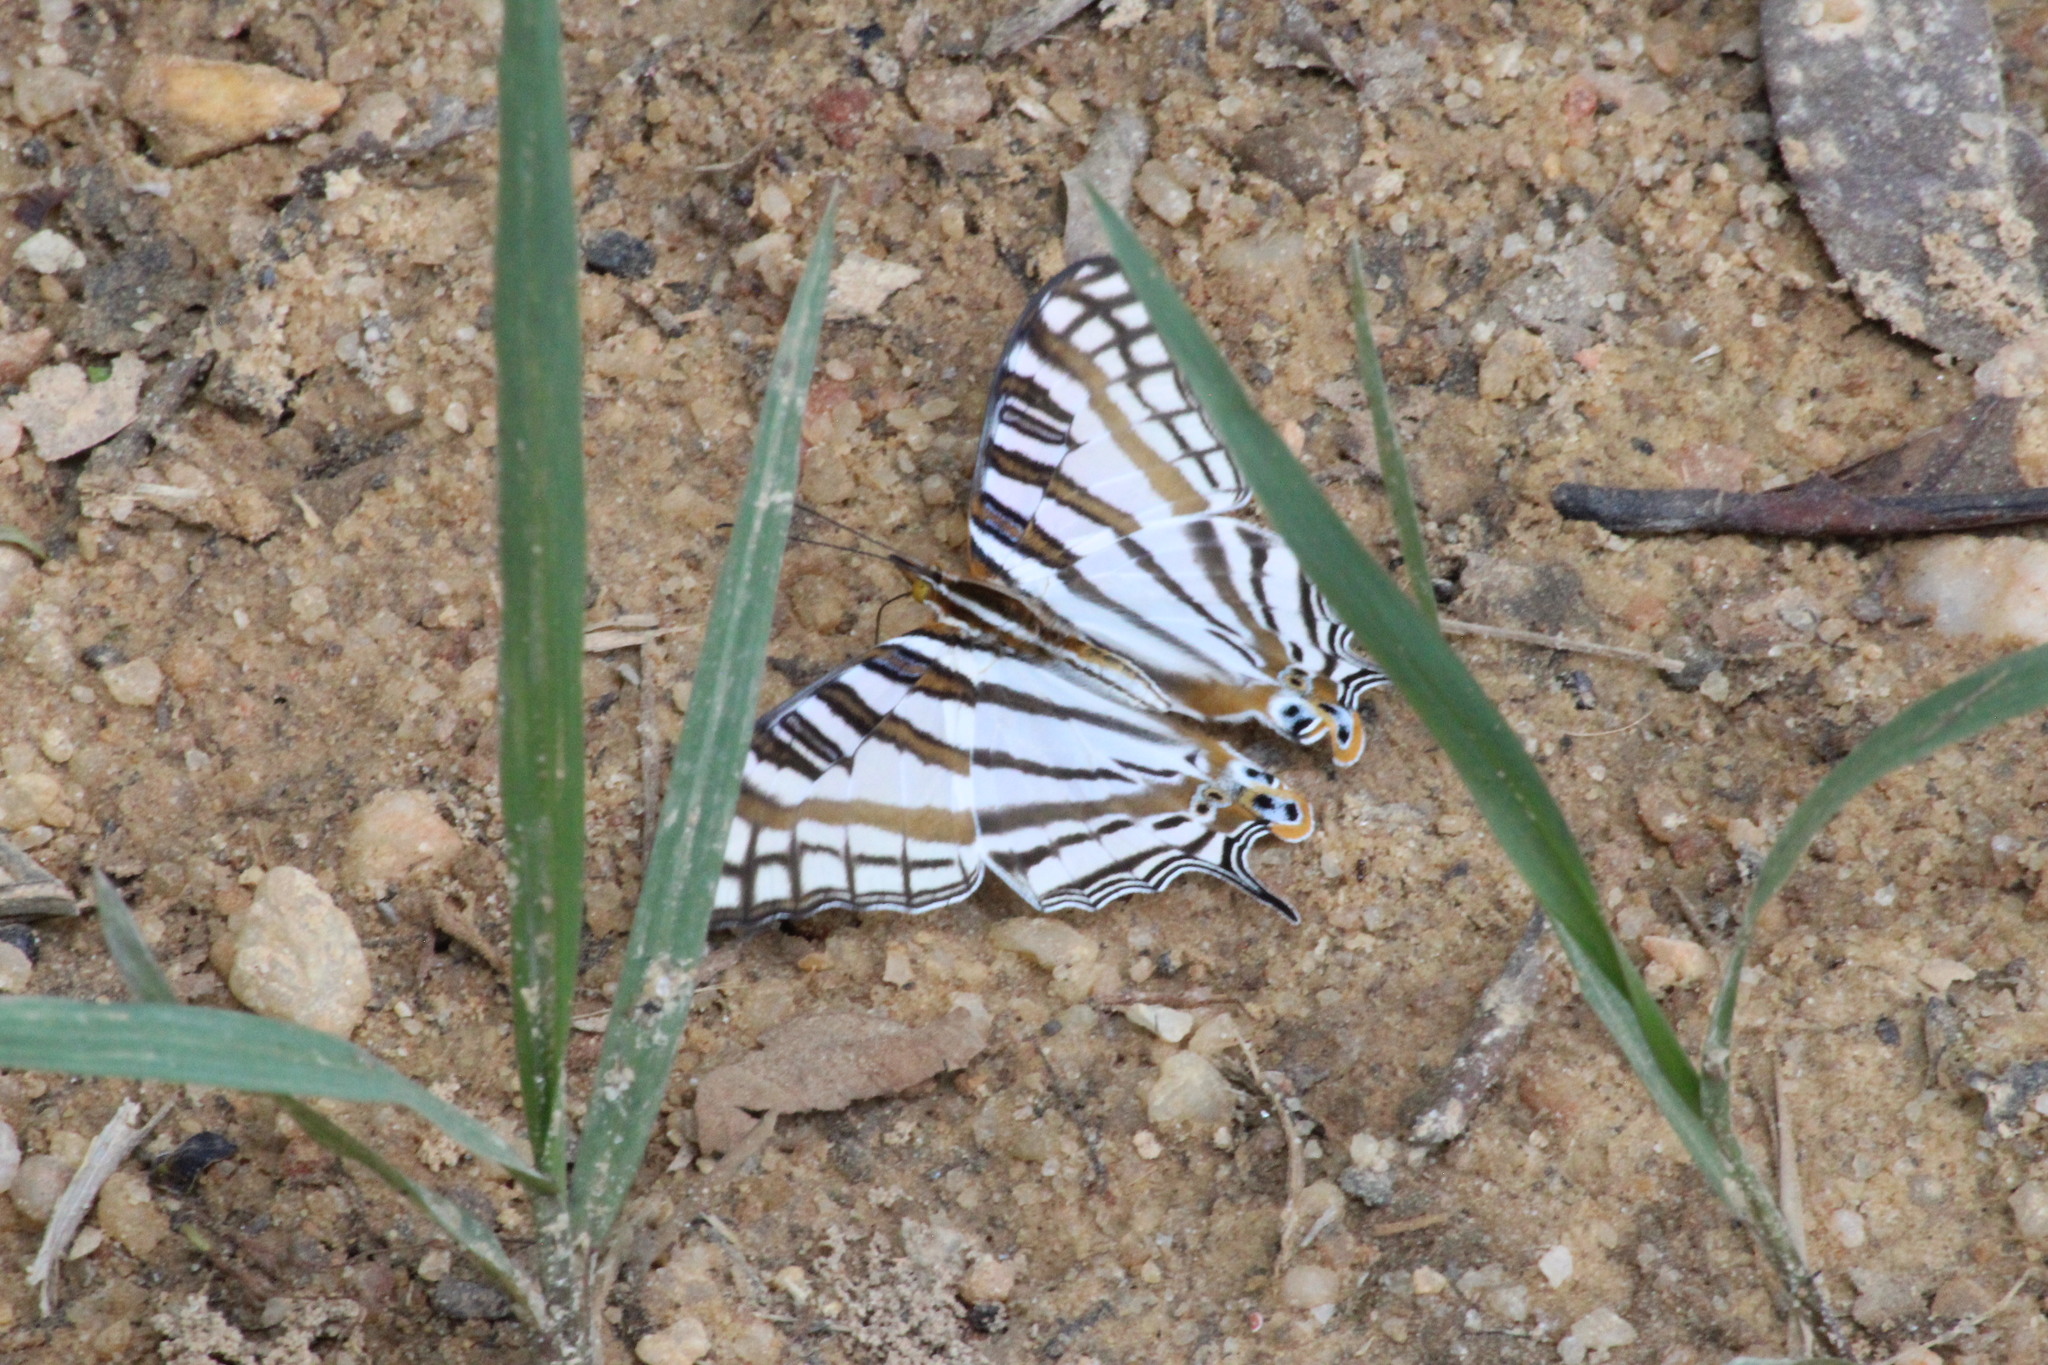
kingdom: Animalia
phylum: Arthropoda
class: Insecta
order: Lepidoptera
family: Nymphalidae
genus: Marpesia
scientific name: Marpesia camillus
